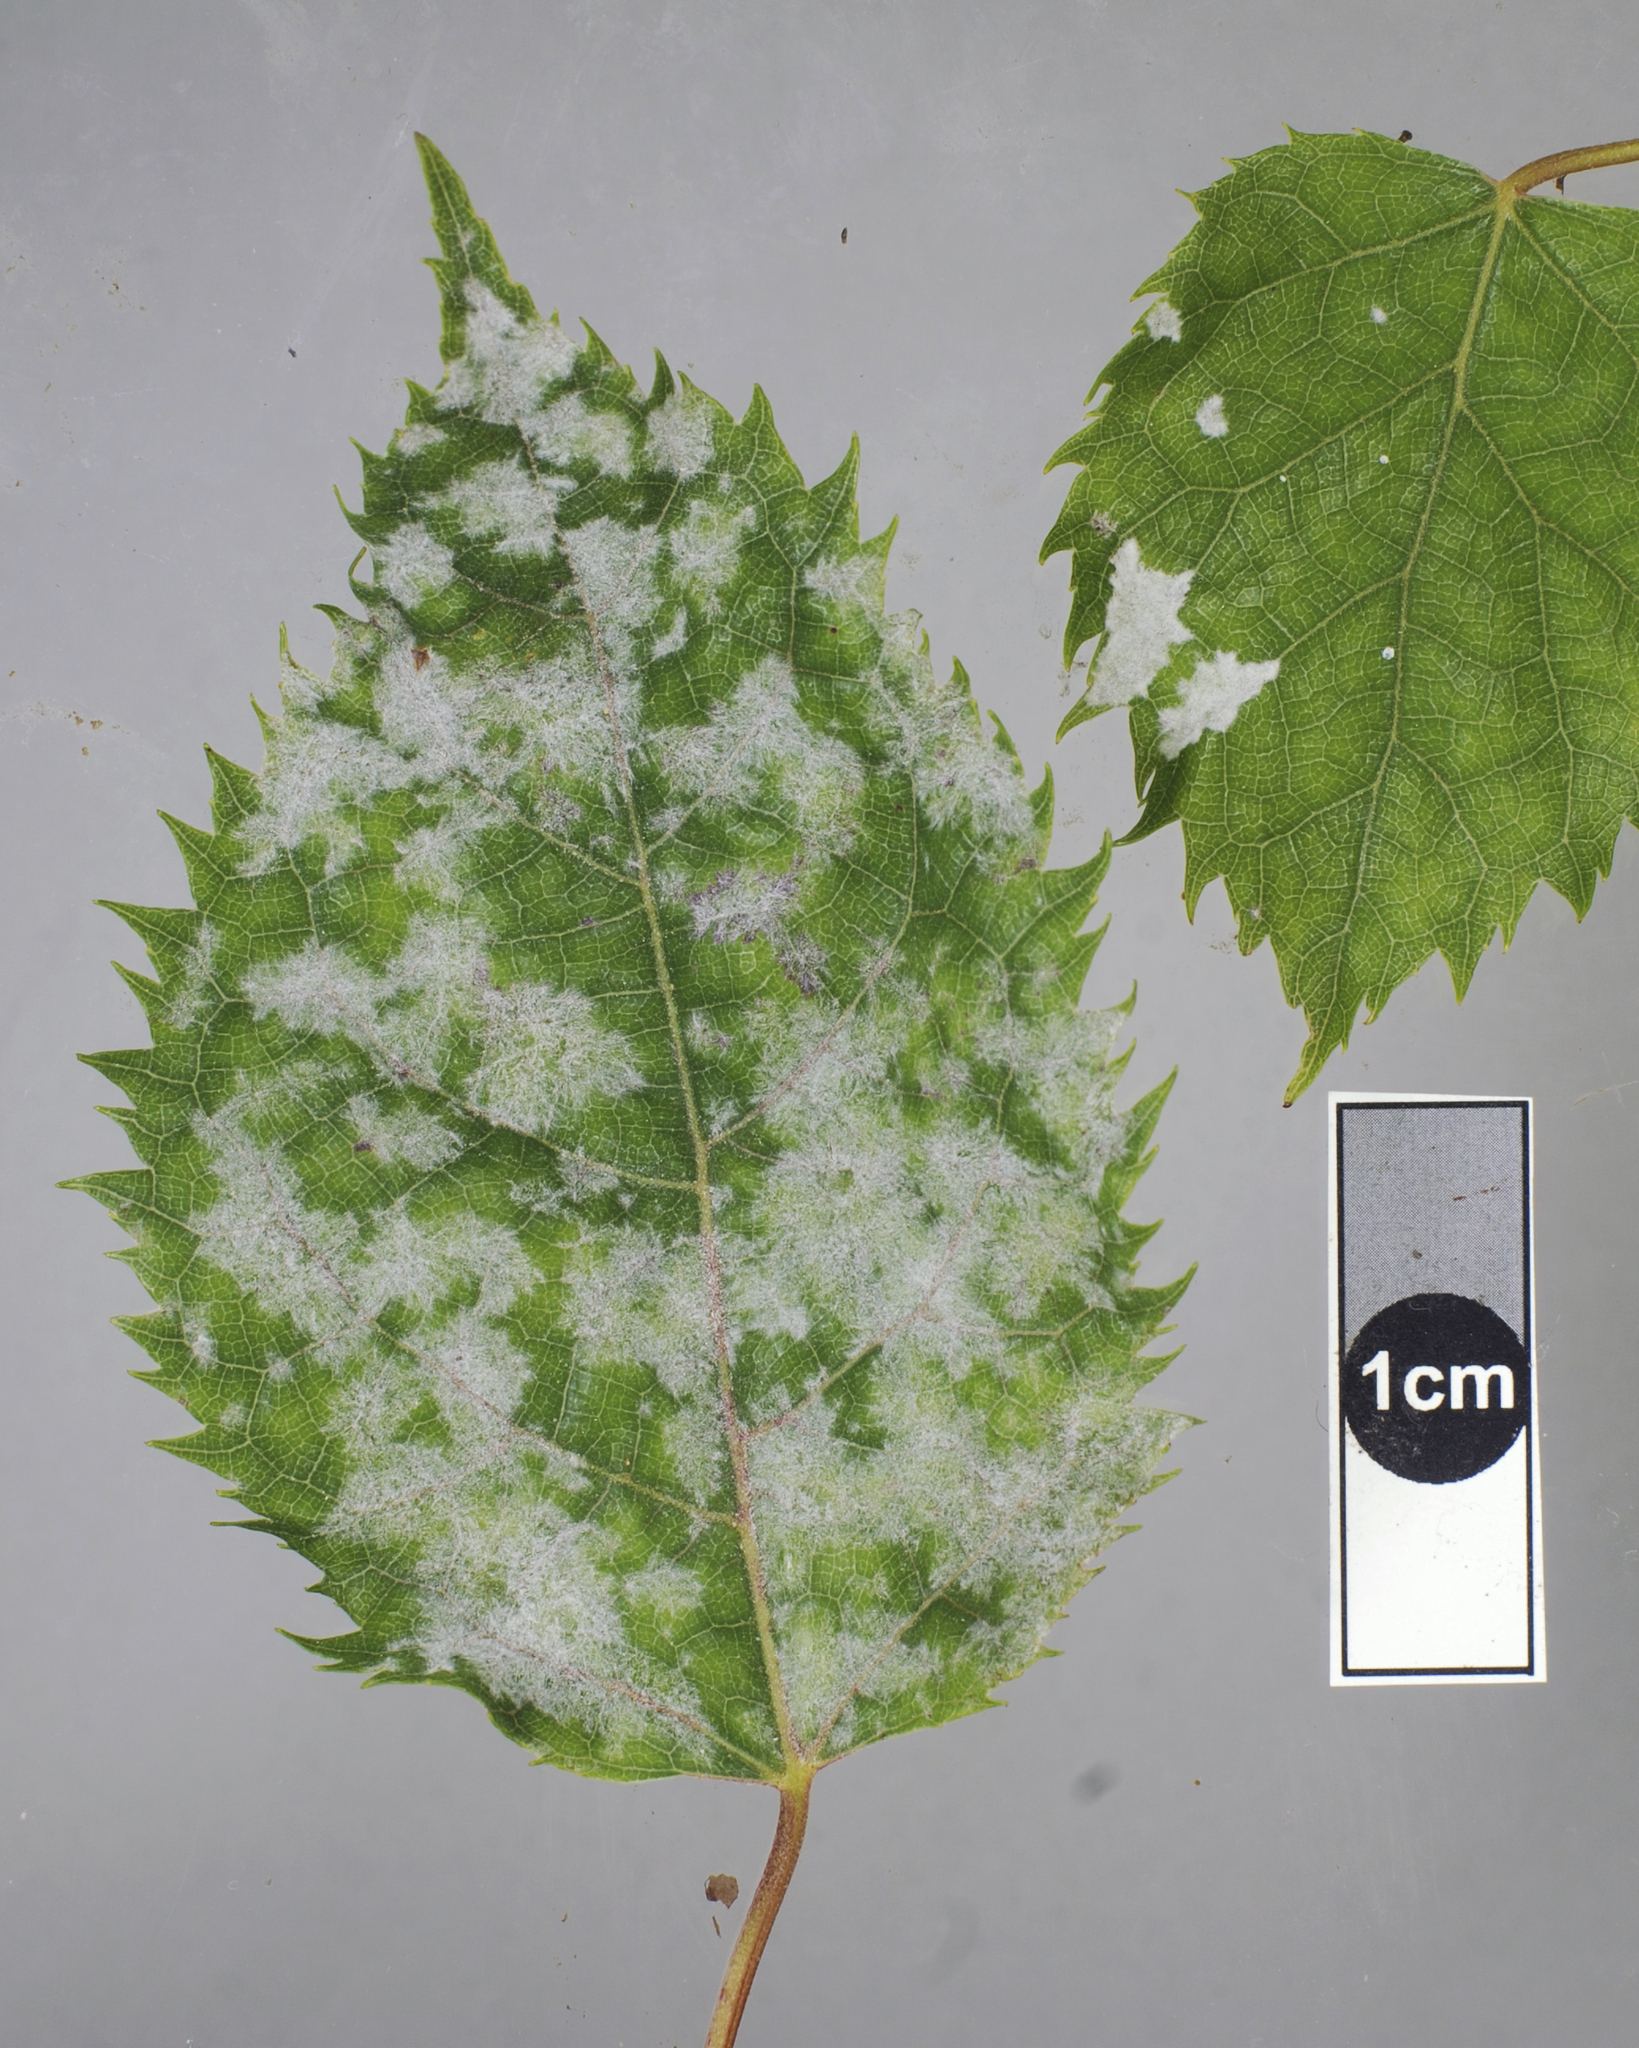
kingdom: Fungi
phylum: Ascomycota
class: Leotiomycetes
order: Helotiales
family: Erysiphaceae
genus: Erysiphe
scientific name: Erysiphe densa
